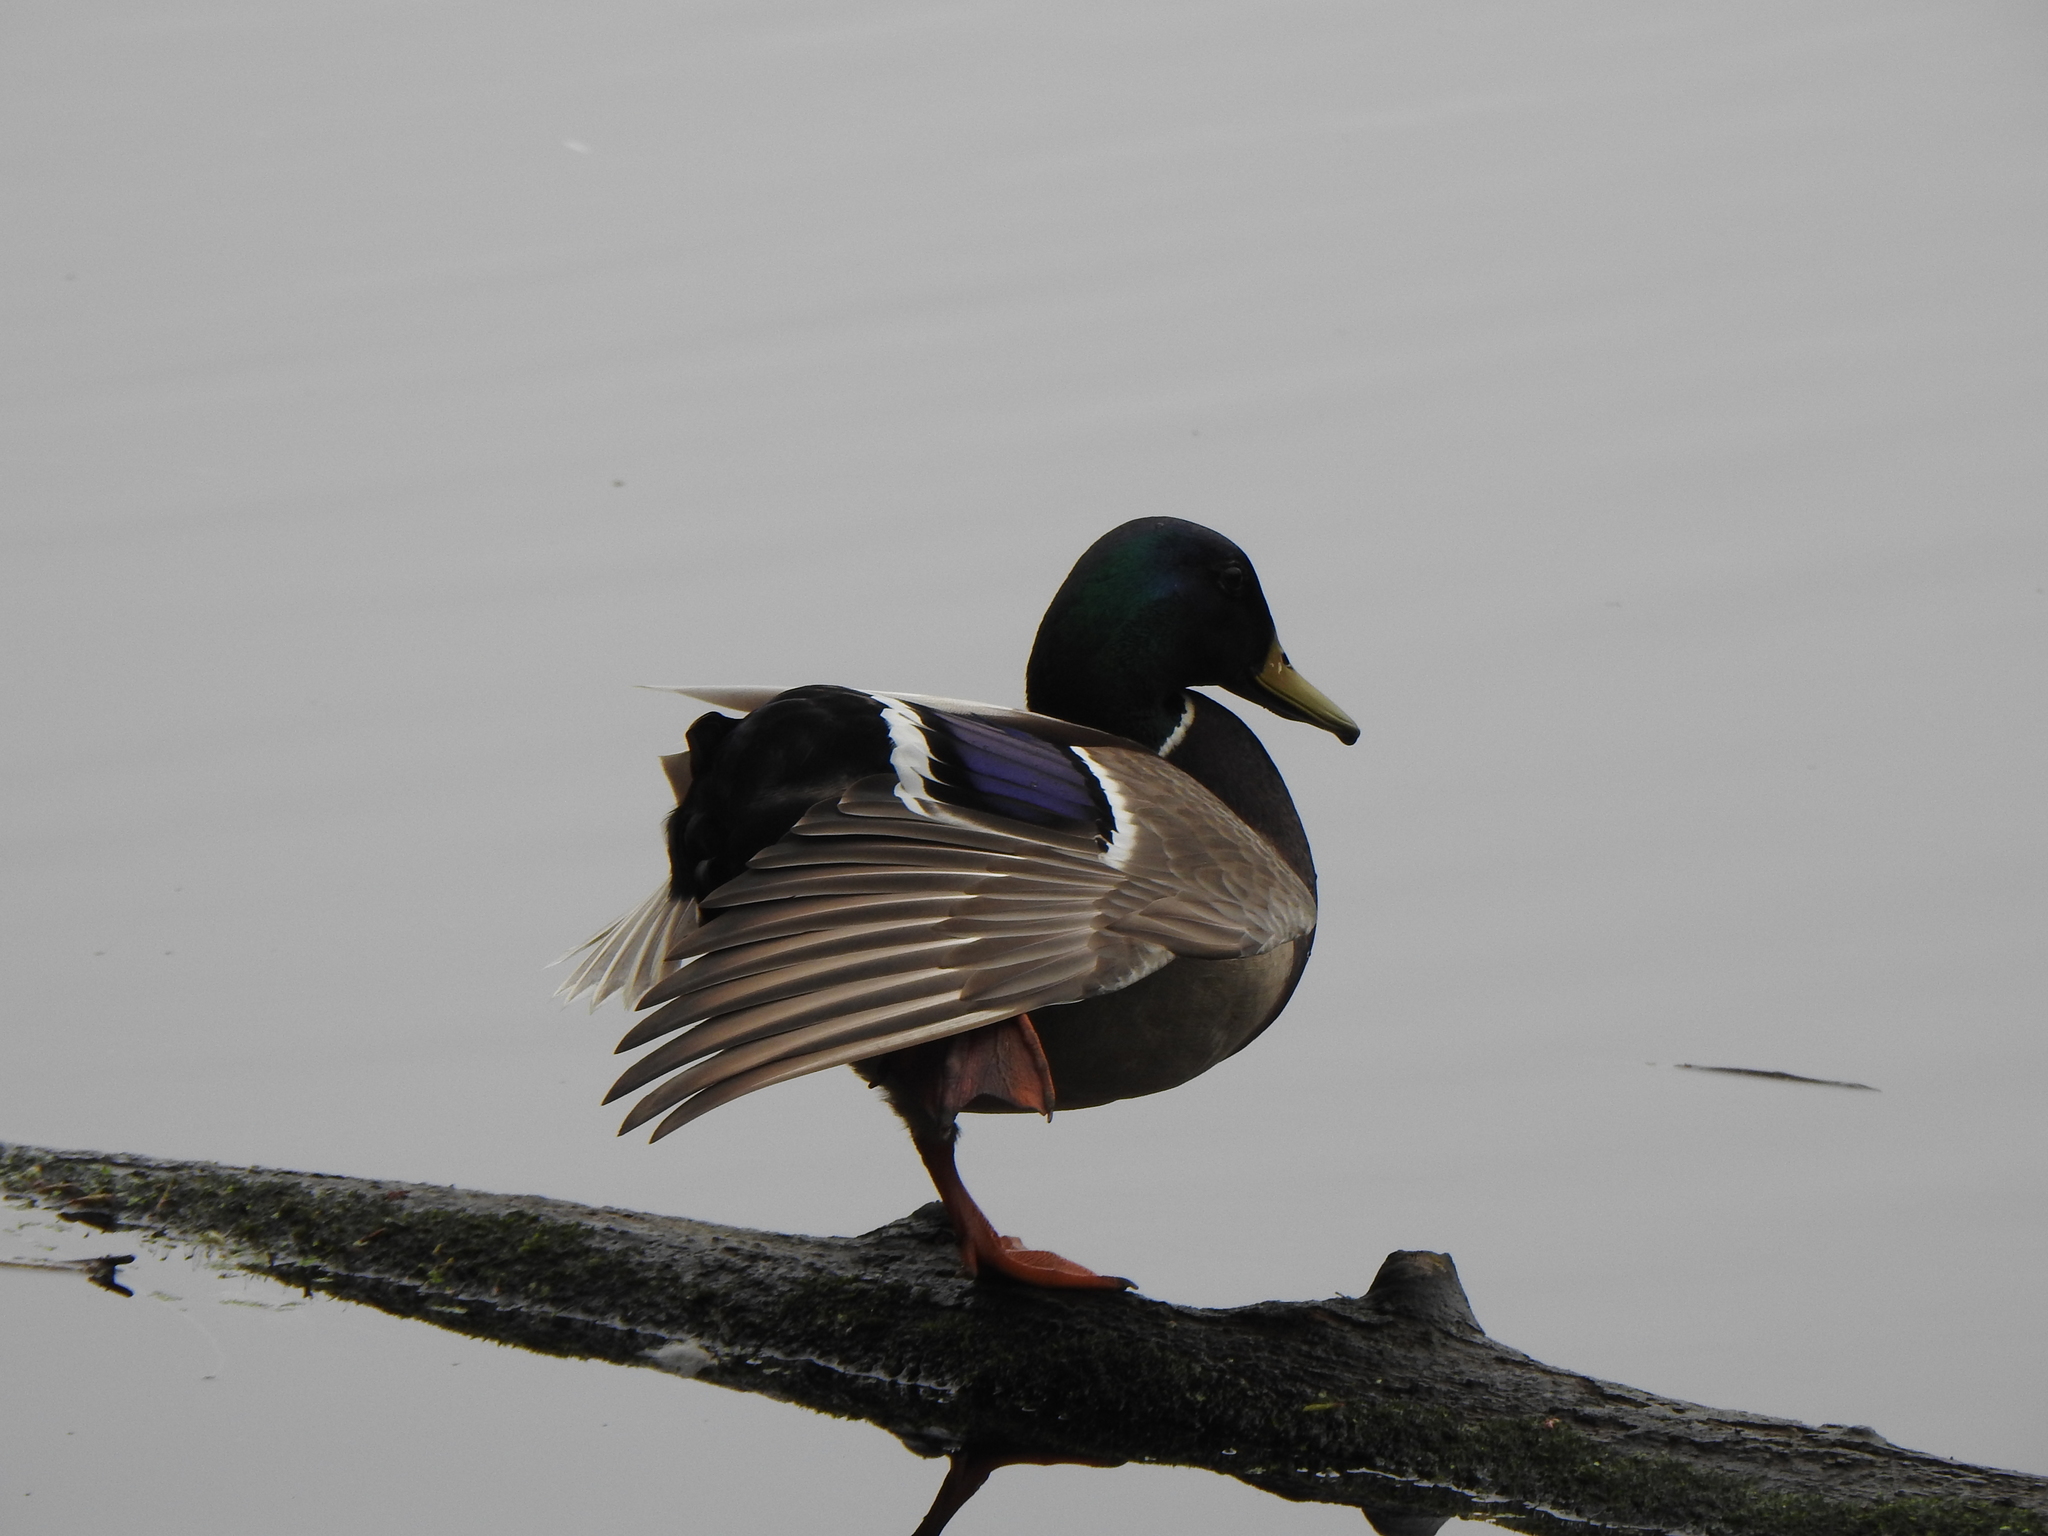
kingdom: Animalia
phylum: Chordata
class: Aves
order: Anseriformes
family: Anatidae
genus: Anas
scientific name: Anas platyrhynchos
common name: Mallard
